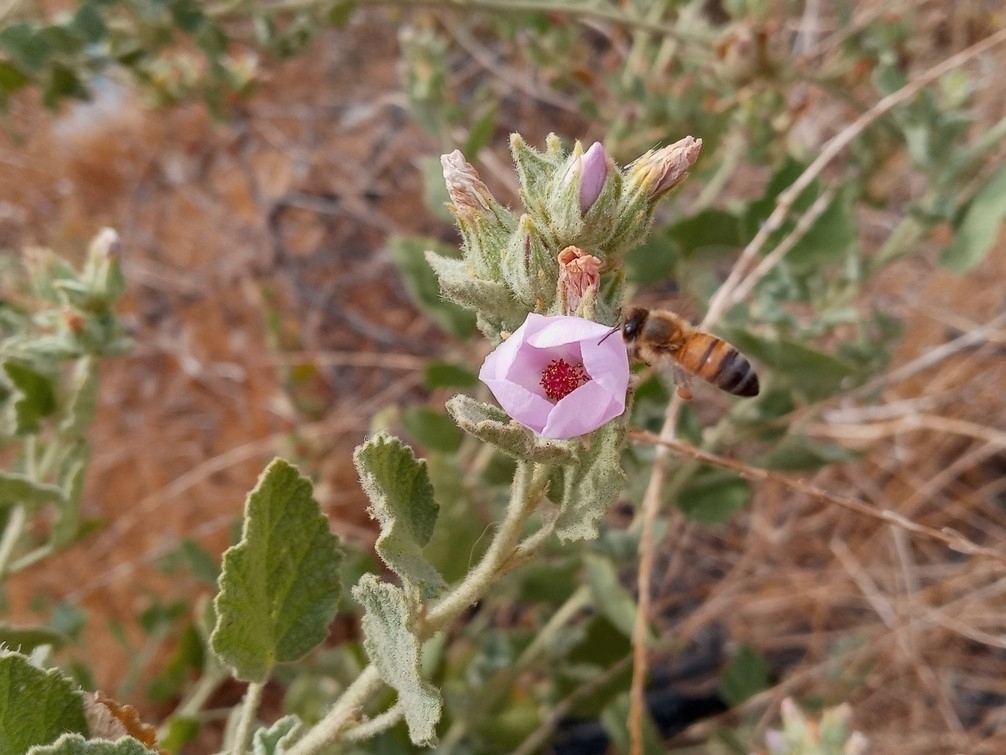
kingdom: Plantae
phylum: Tracheophyta
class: Magnoliopsida
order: Malvales
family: Malvaceae
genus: Malacothamnus
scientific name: Malacothamnus marrubioides
